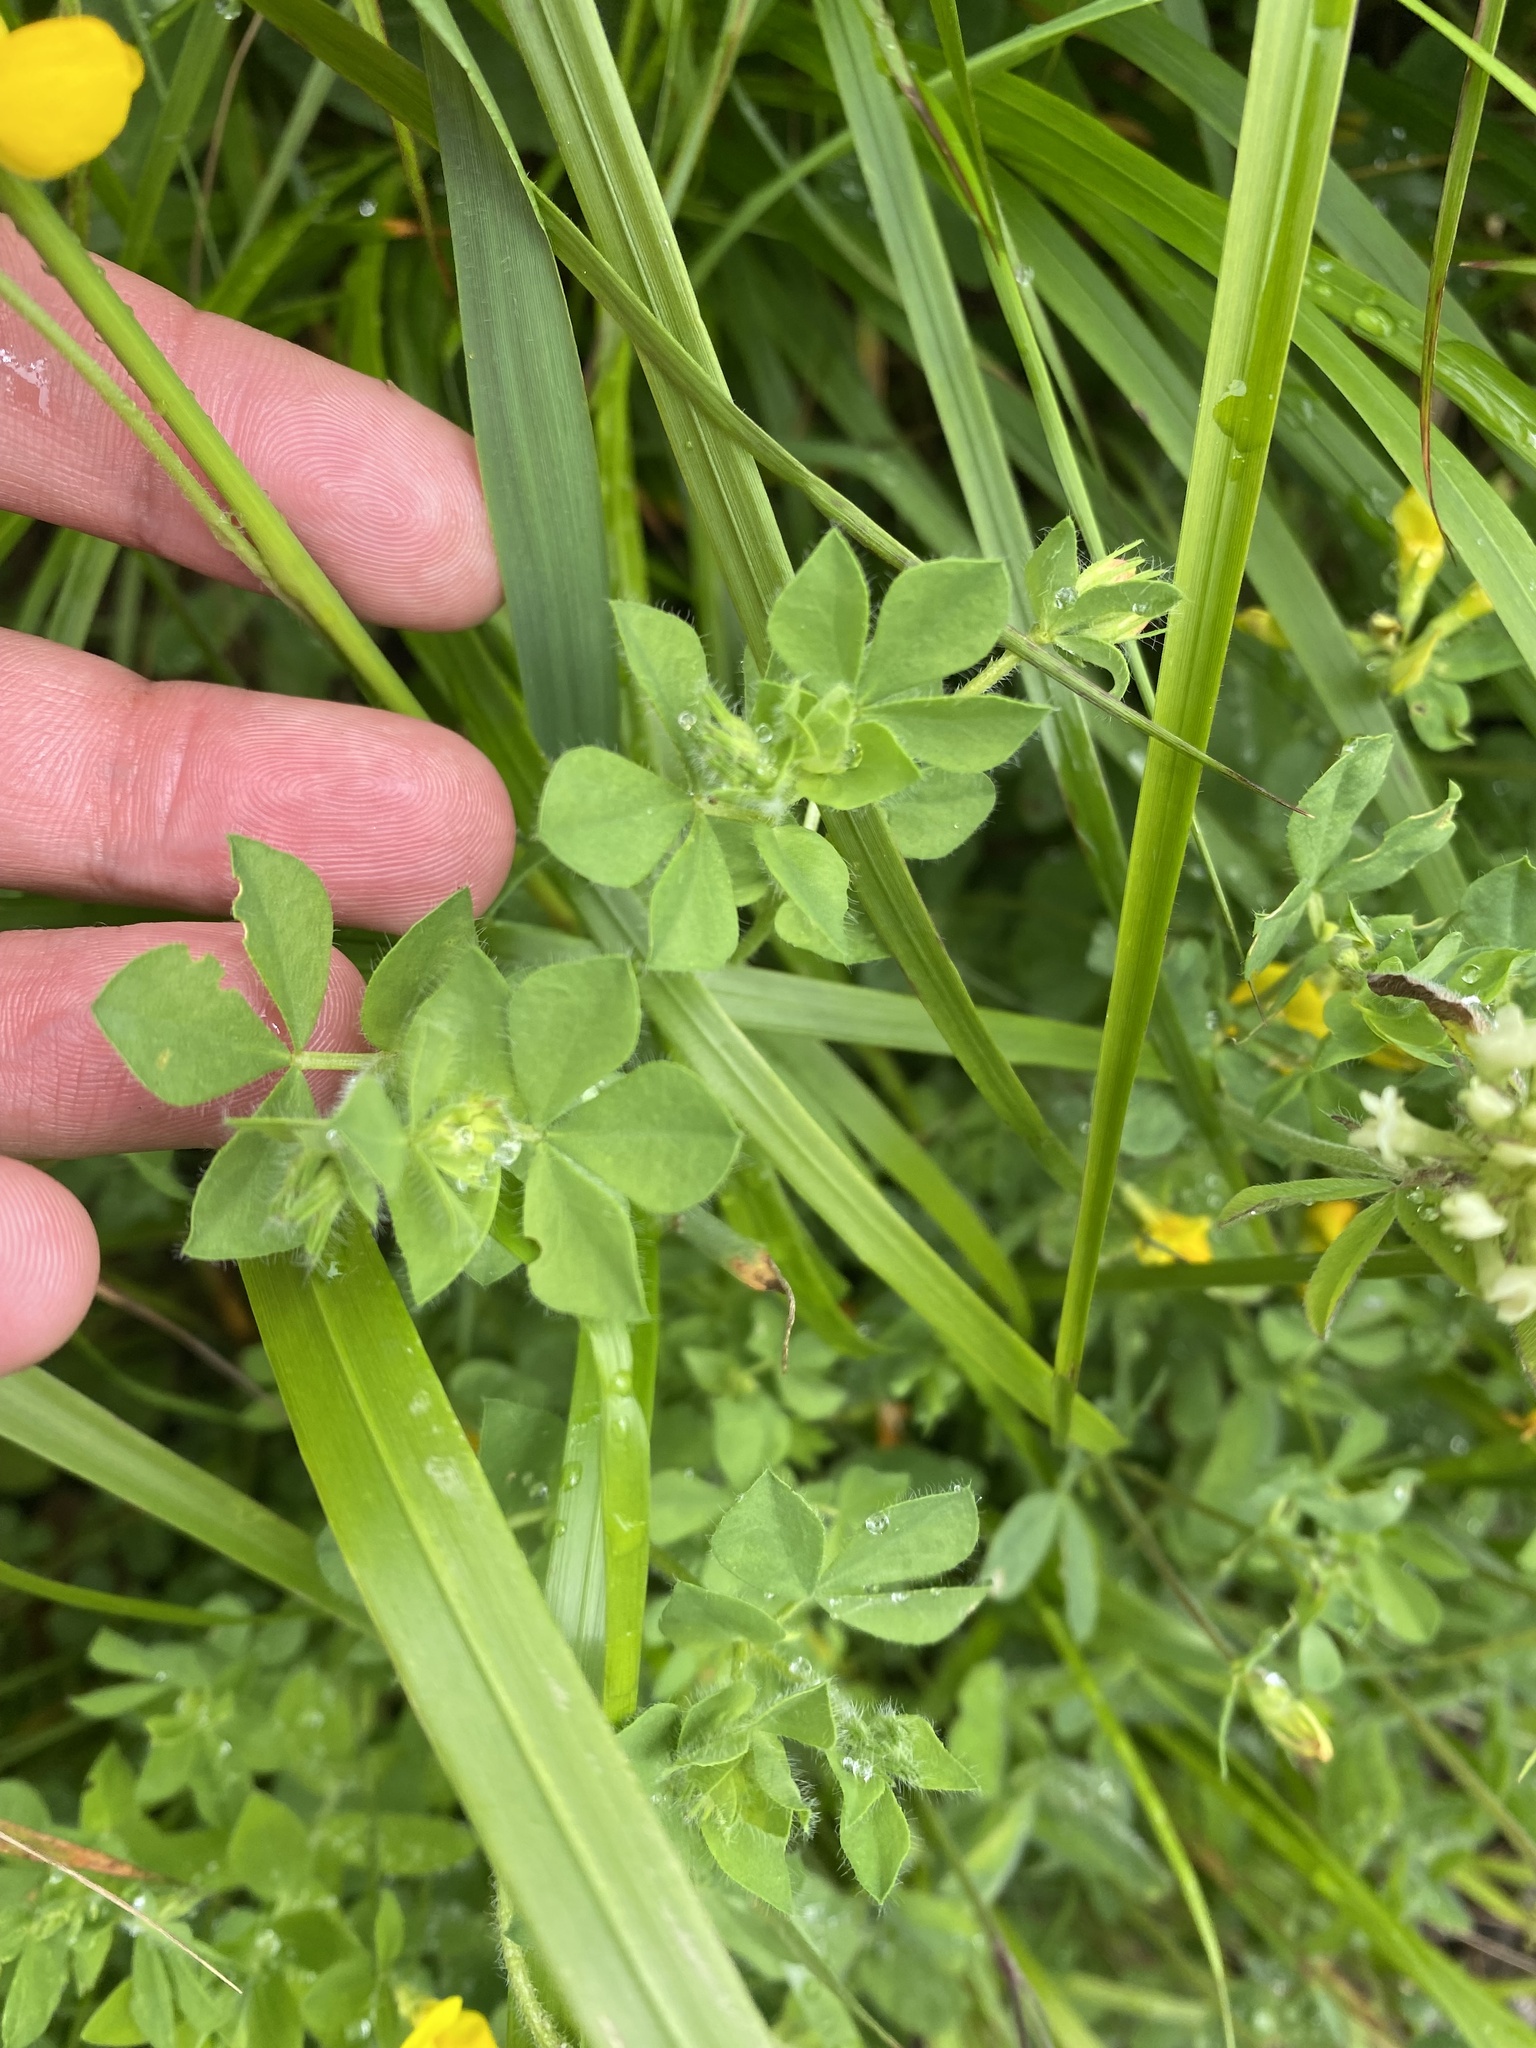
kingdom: Plantae
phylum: Tracheophyta
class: Magnoliopsida
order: Fabales
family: Fabaceae
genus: Lotus
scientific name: Lotus corniculatus
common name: Common bird's-foot-trefoil
